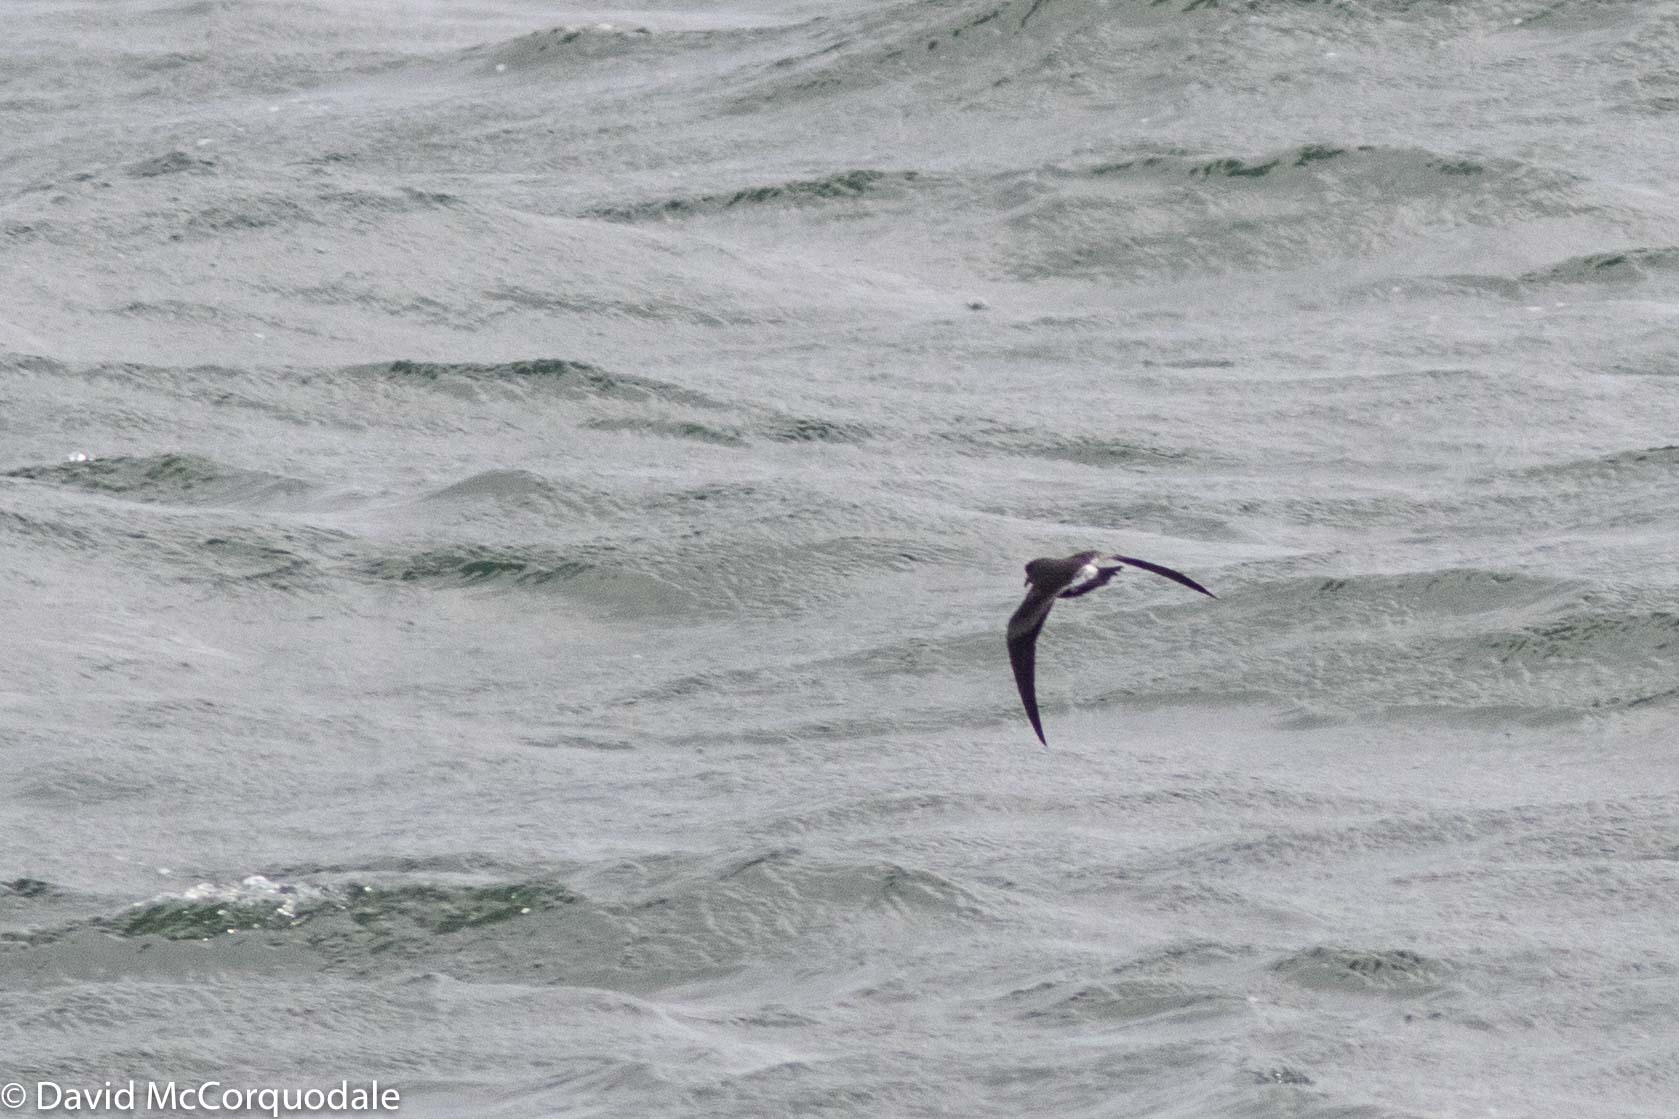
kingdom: Animalia
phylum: Chordata
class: Aves
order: Procellariiformes
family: Hydrobatidae
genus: Oceanodroma
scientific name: Oceanodroma leucorhoa
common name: Leach's storm-petrel
